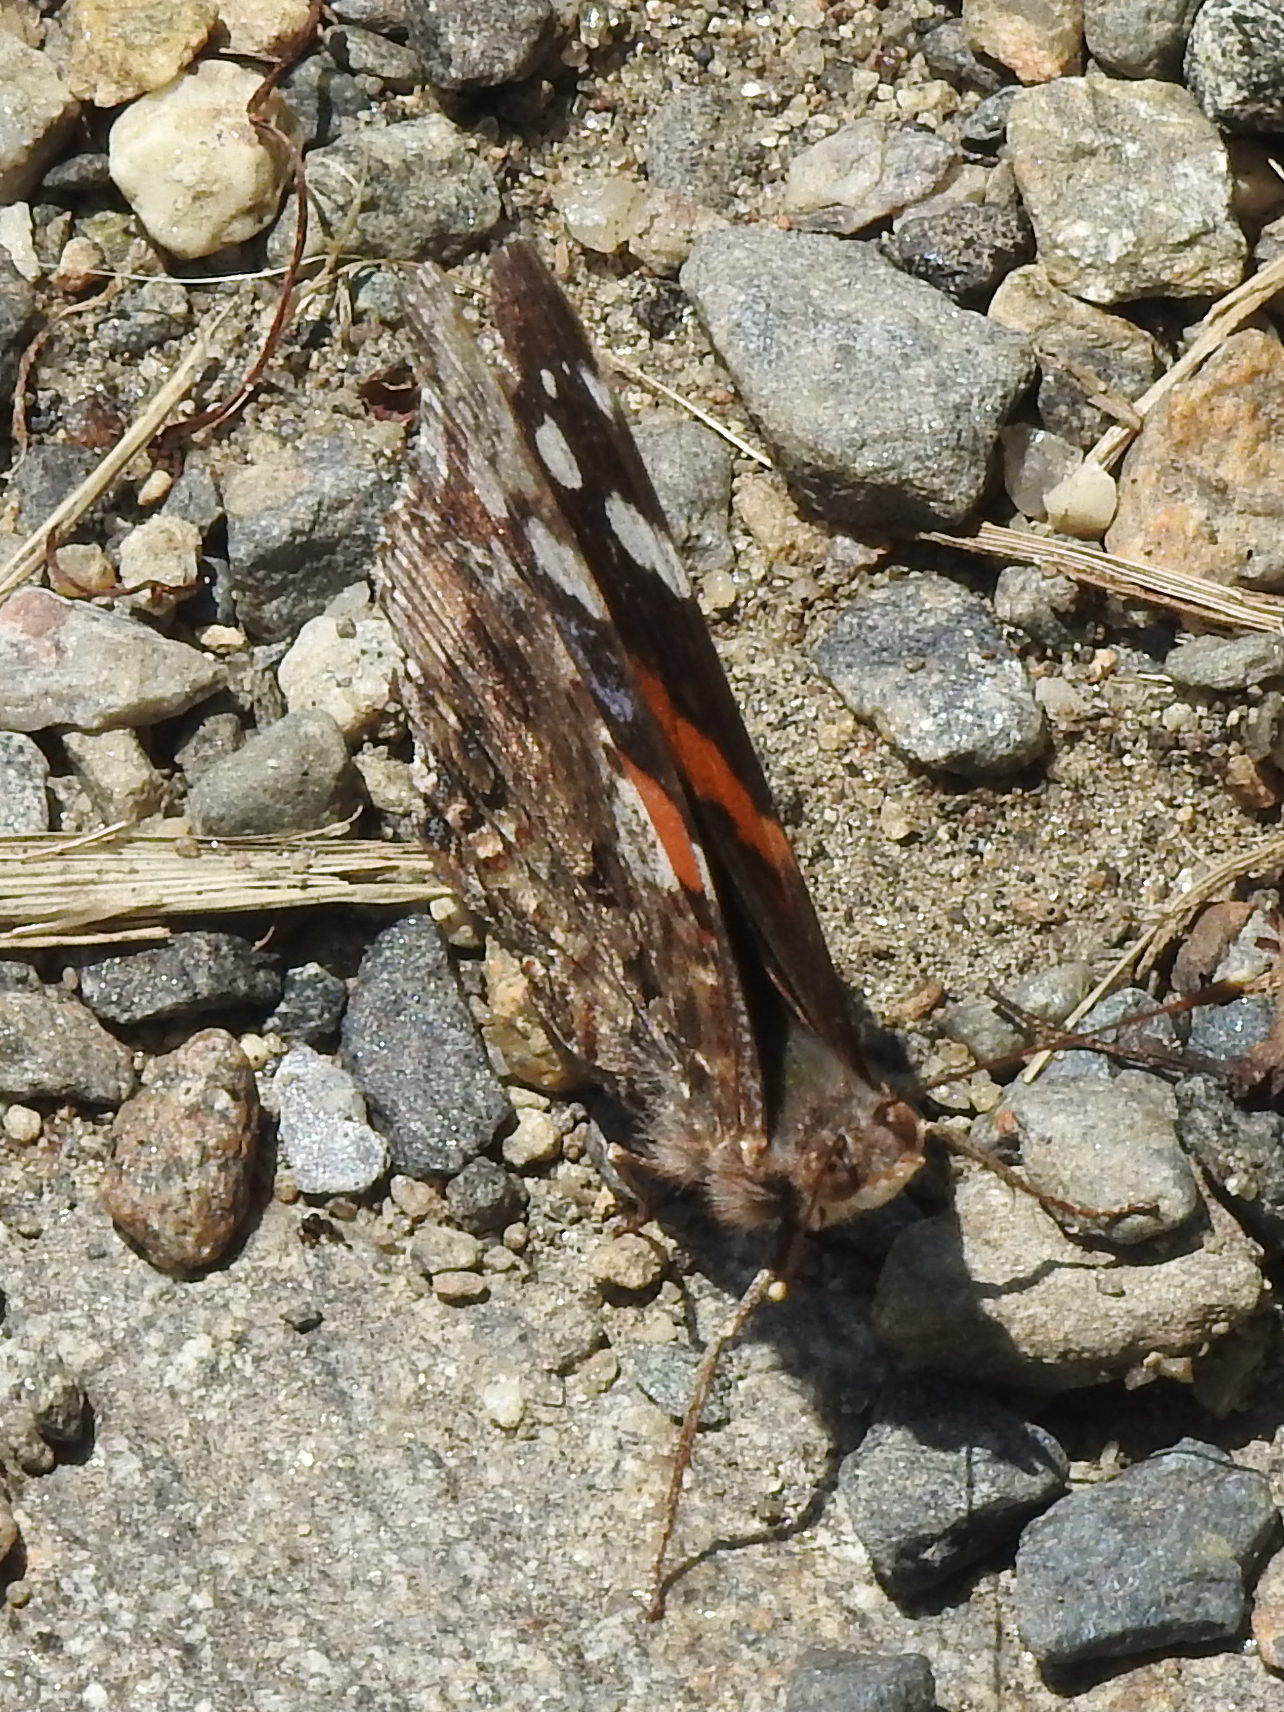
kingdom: Animalia
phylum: Arthropoda
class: Insecta
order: Lepidoptera
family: Nymphalidae
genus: Vanessa
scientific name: Vanessa atalanta
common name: Red admiral
